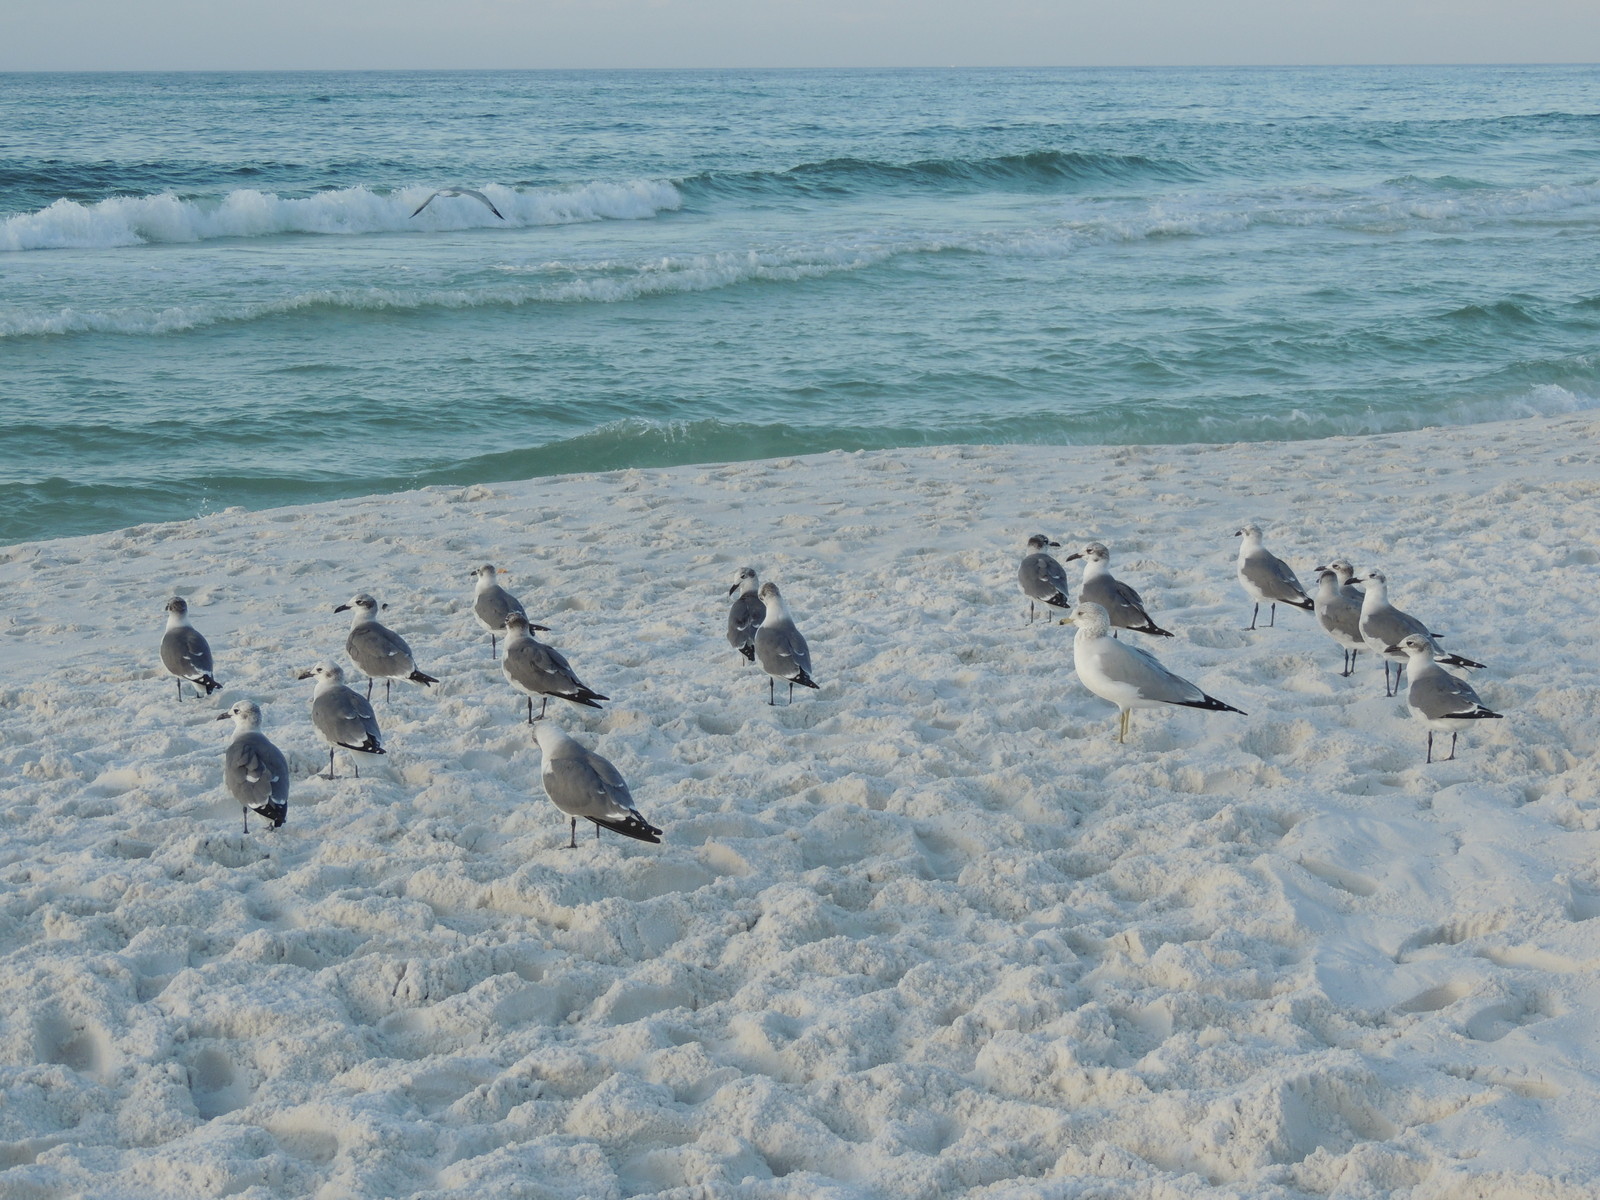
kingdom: Animalia
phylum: Chordata
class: Aves
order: Charadriiformes
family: Laridae
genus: Larus
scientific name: Larus delawarensis
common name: Ring-billed gull
